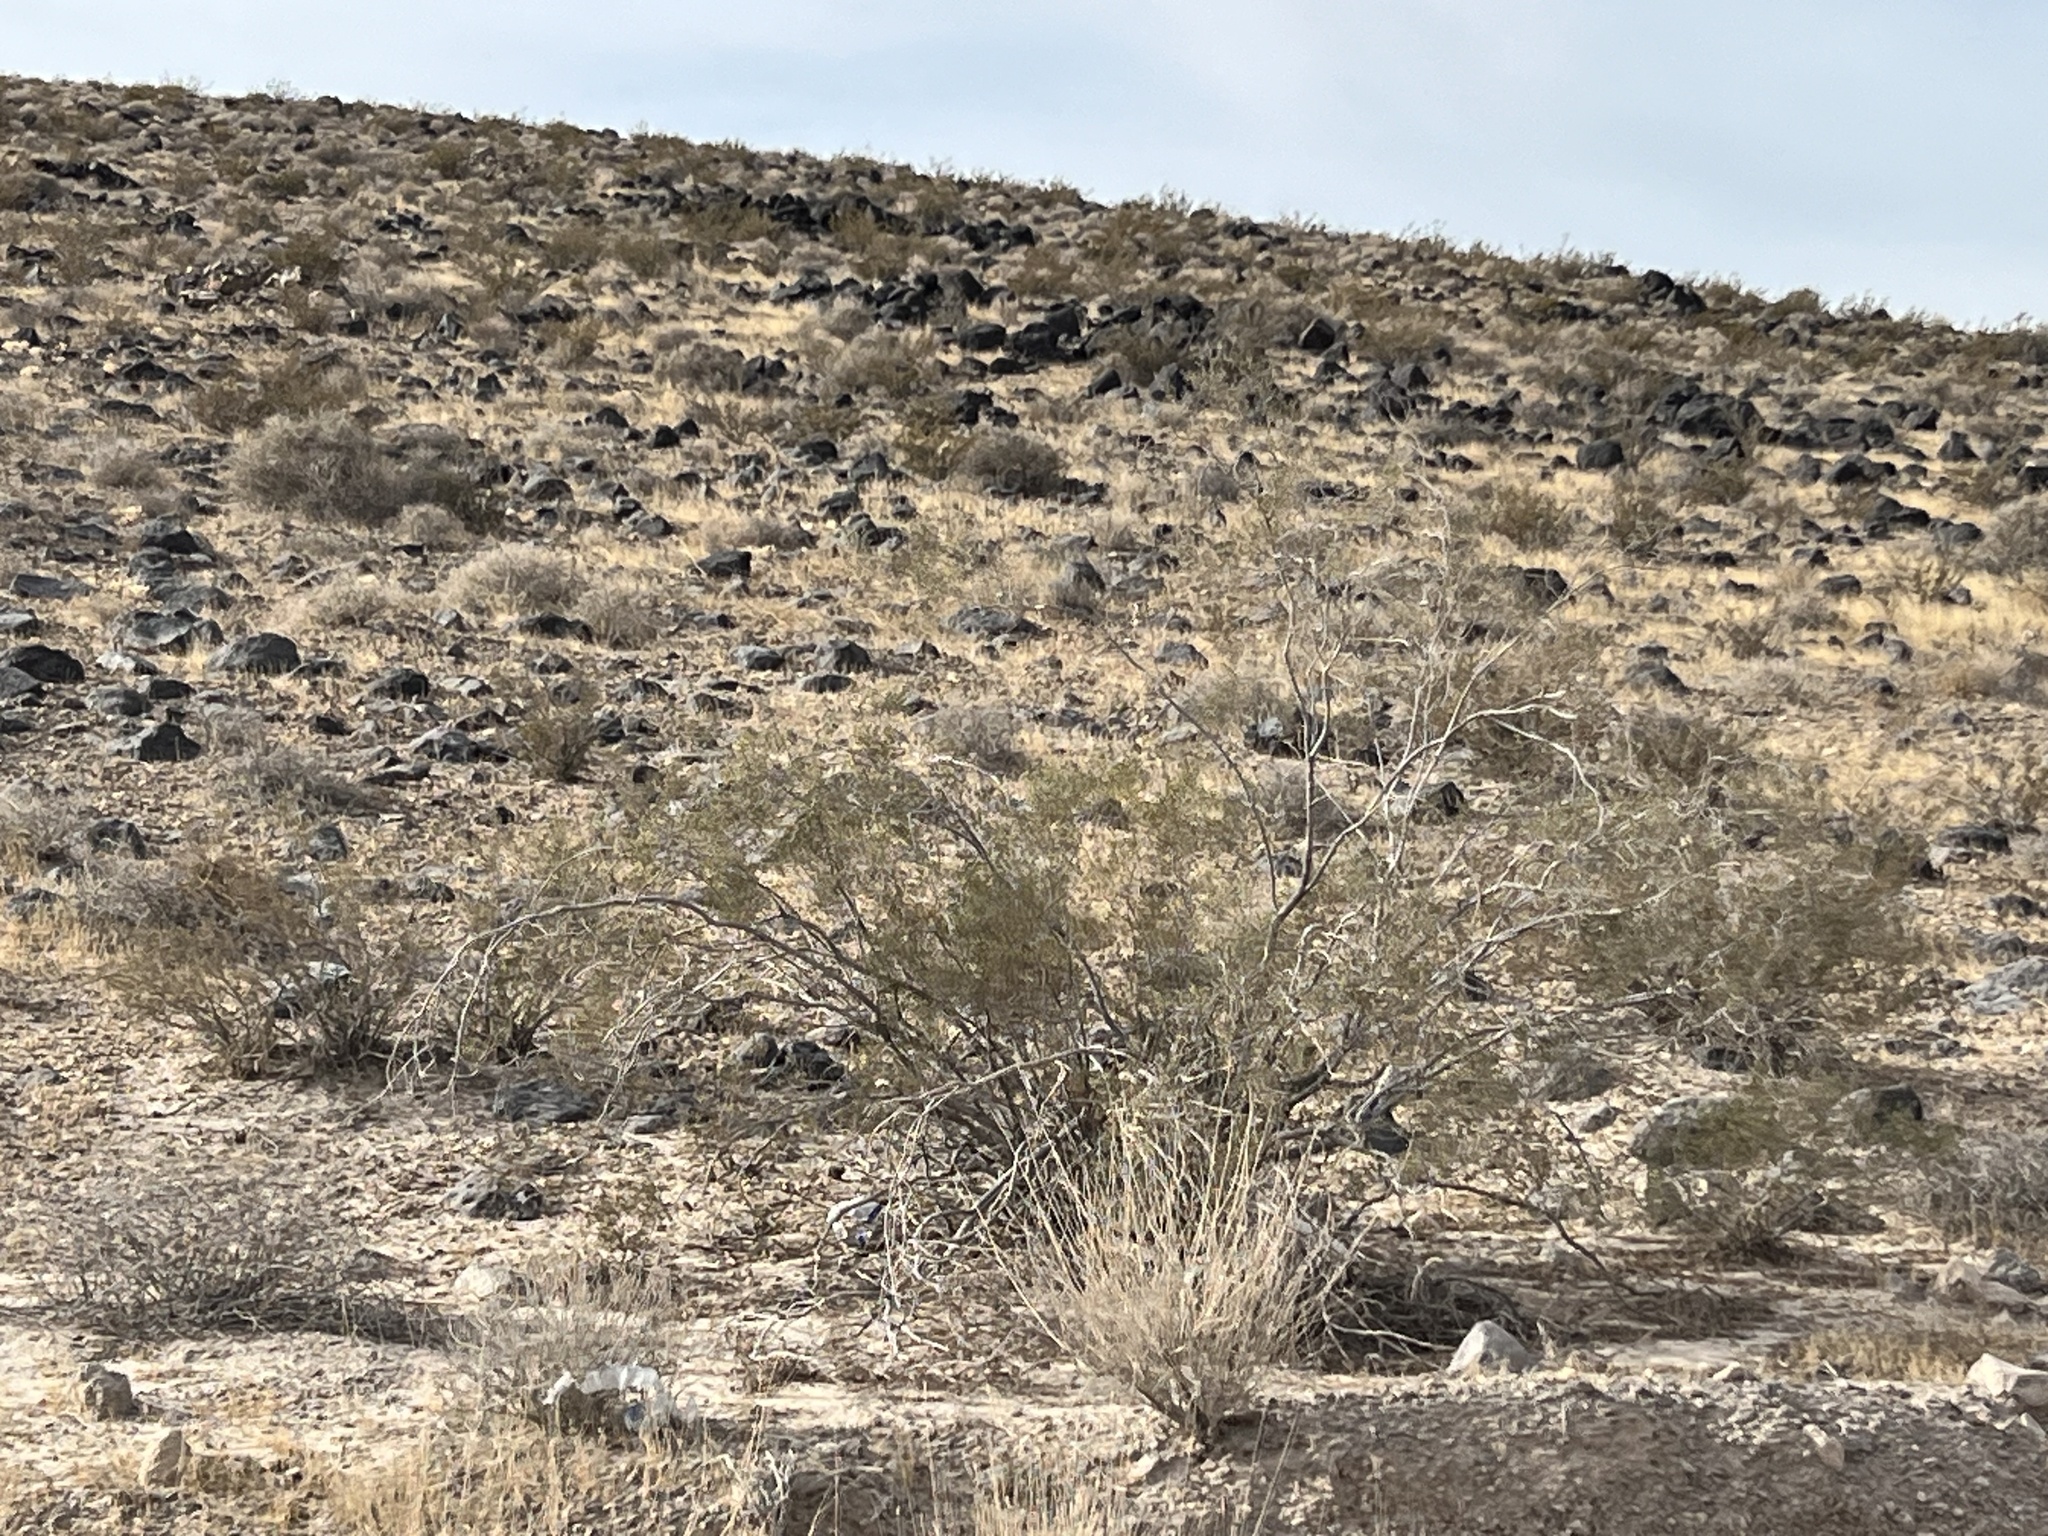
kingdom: Plantae
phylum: Tracheophyta
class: Magnoliopsida
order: Zygophyllales
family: Zygophyllaceae
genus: Larrea
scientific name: Larrea tridentata
